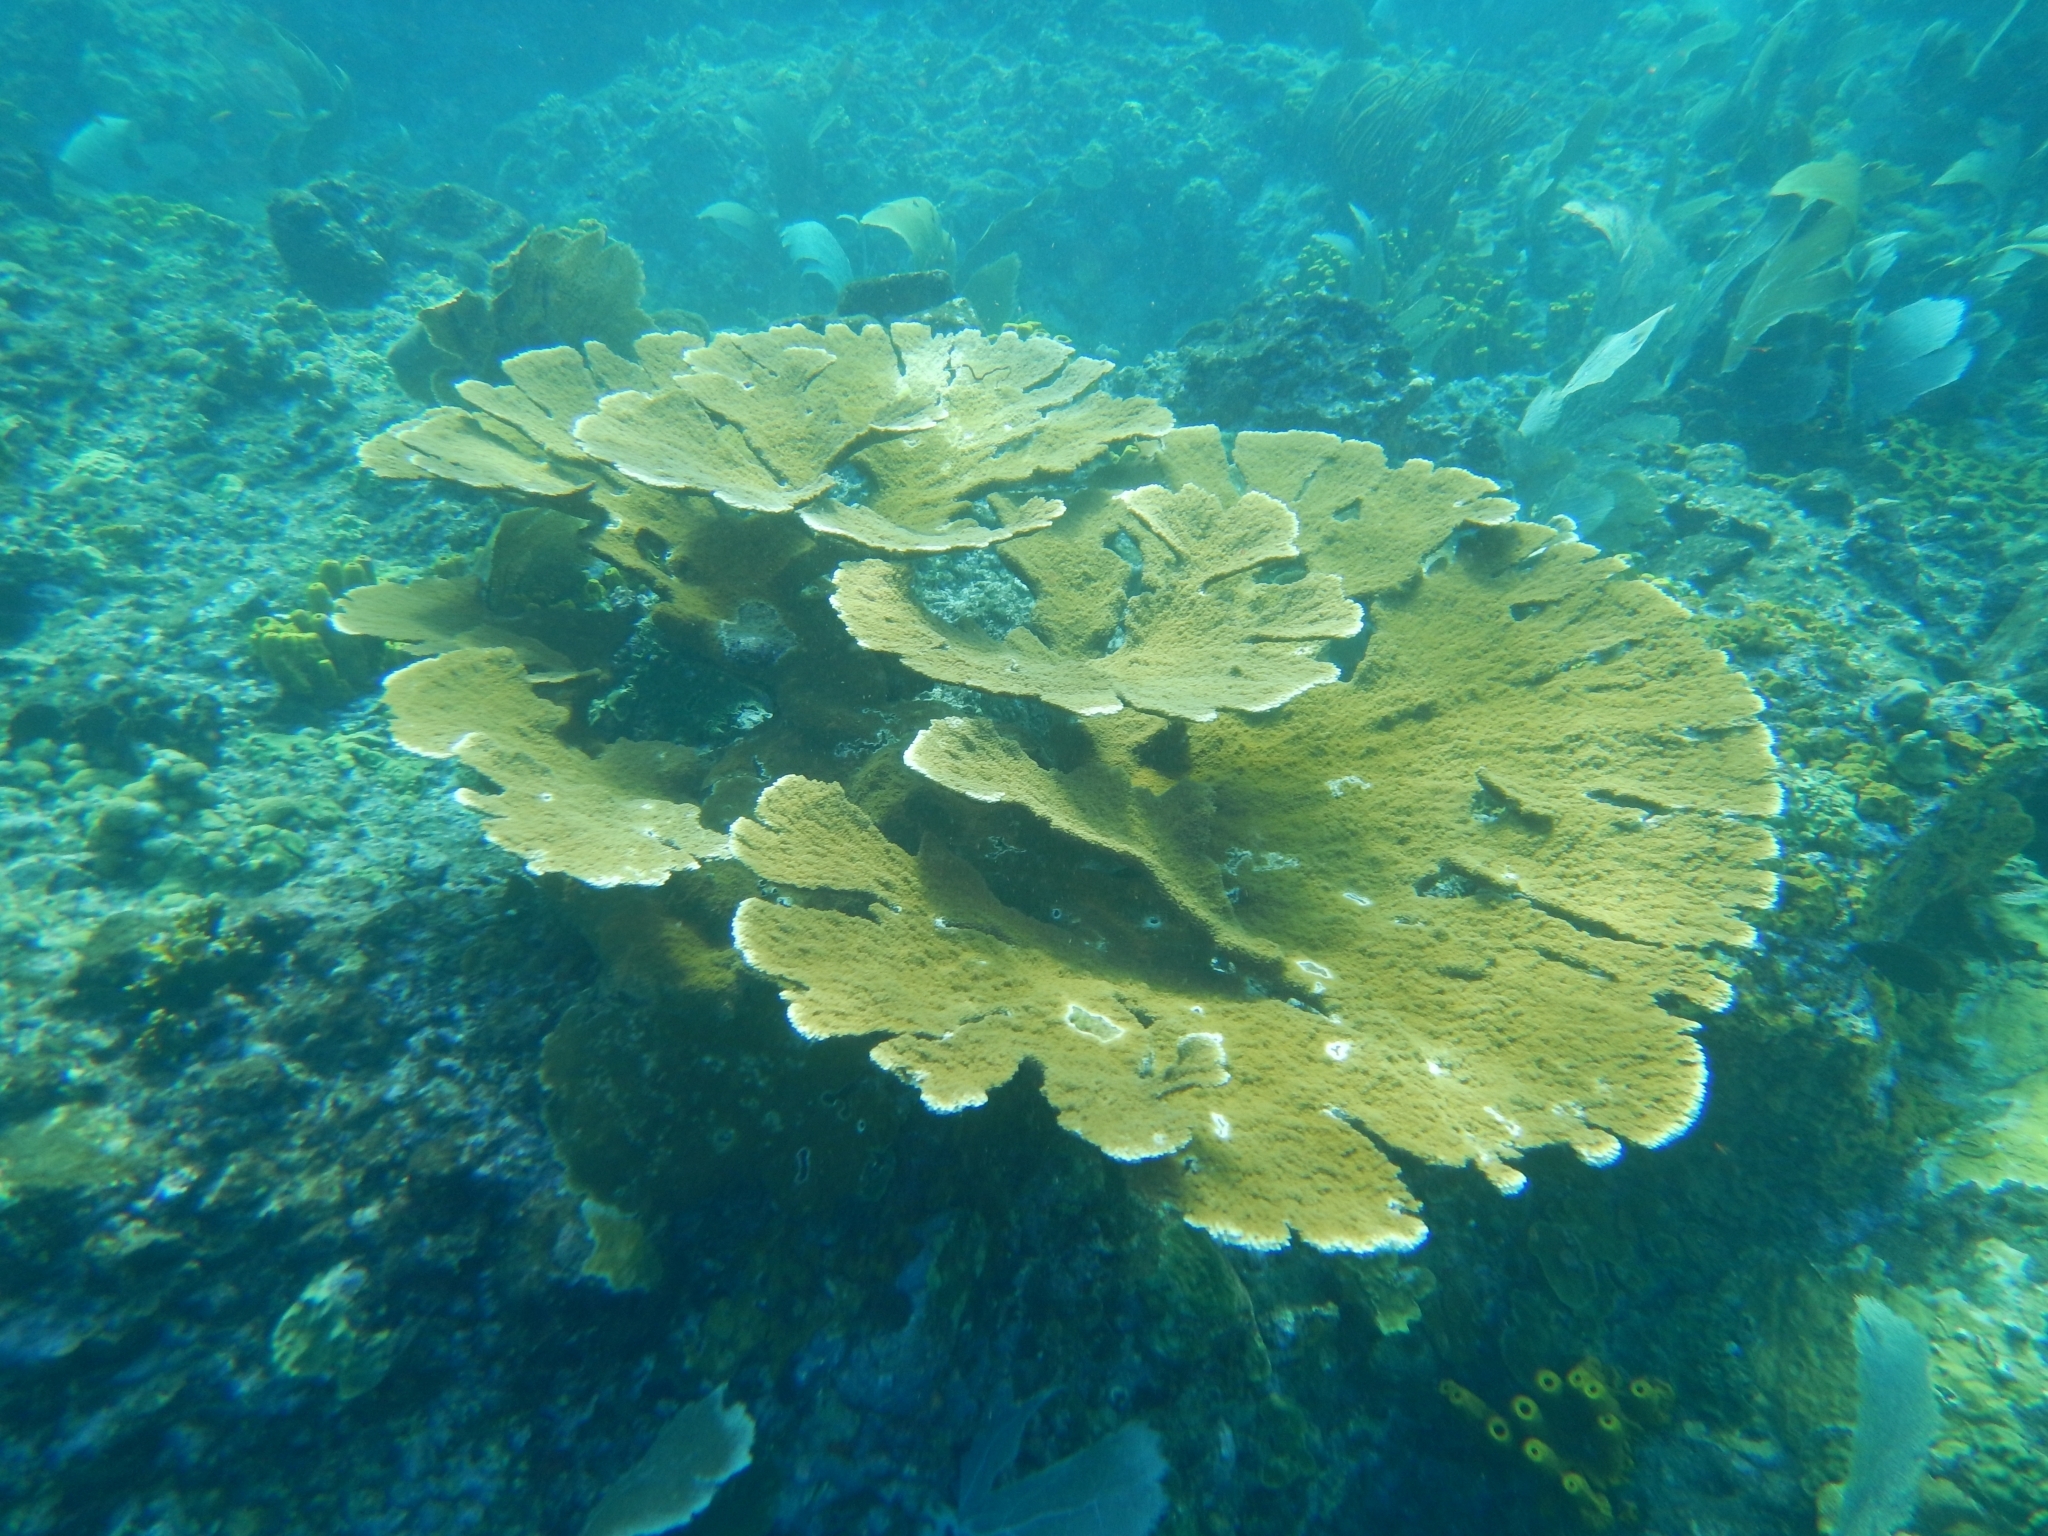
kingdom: Animalia
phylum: Cnidaria
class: Anthozoa
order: Scleractinia
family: Acroporidae
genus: Acropora
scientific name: Acropora palmata
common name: Elkhorn coral
